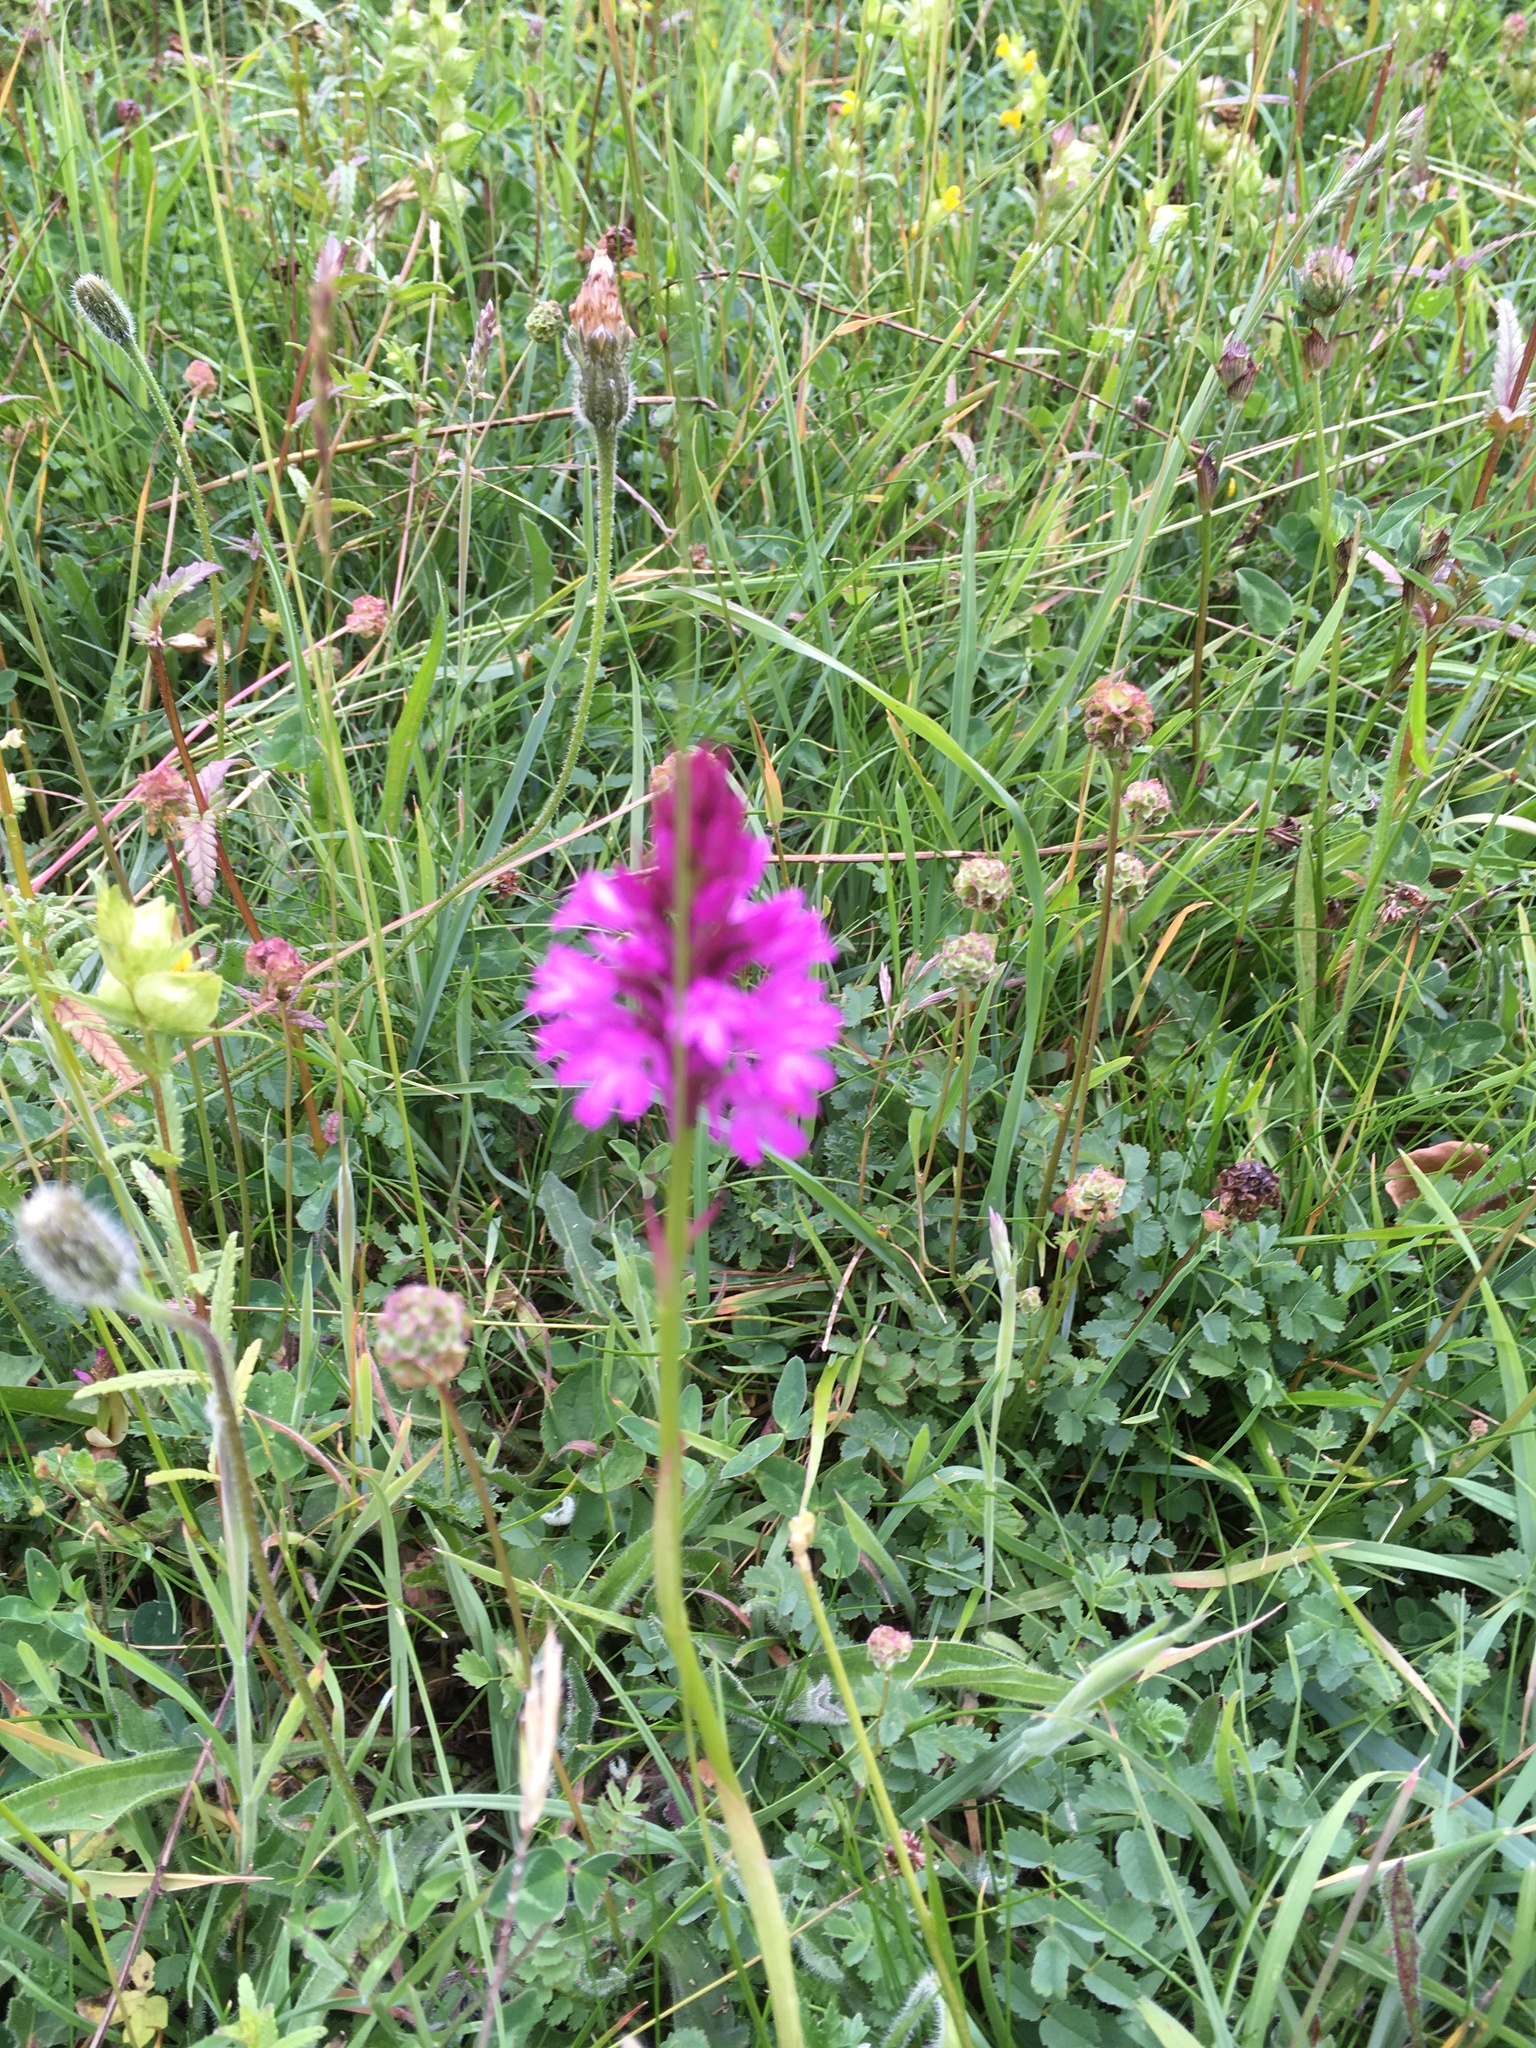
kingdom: Plantae
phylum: Tracheophyta
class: Liliopsida
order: Asparagales
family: Orchidaceae
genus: Anacamptis
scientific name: Anacamptis pyramidalis
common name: Pyramidal orchid
